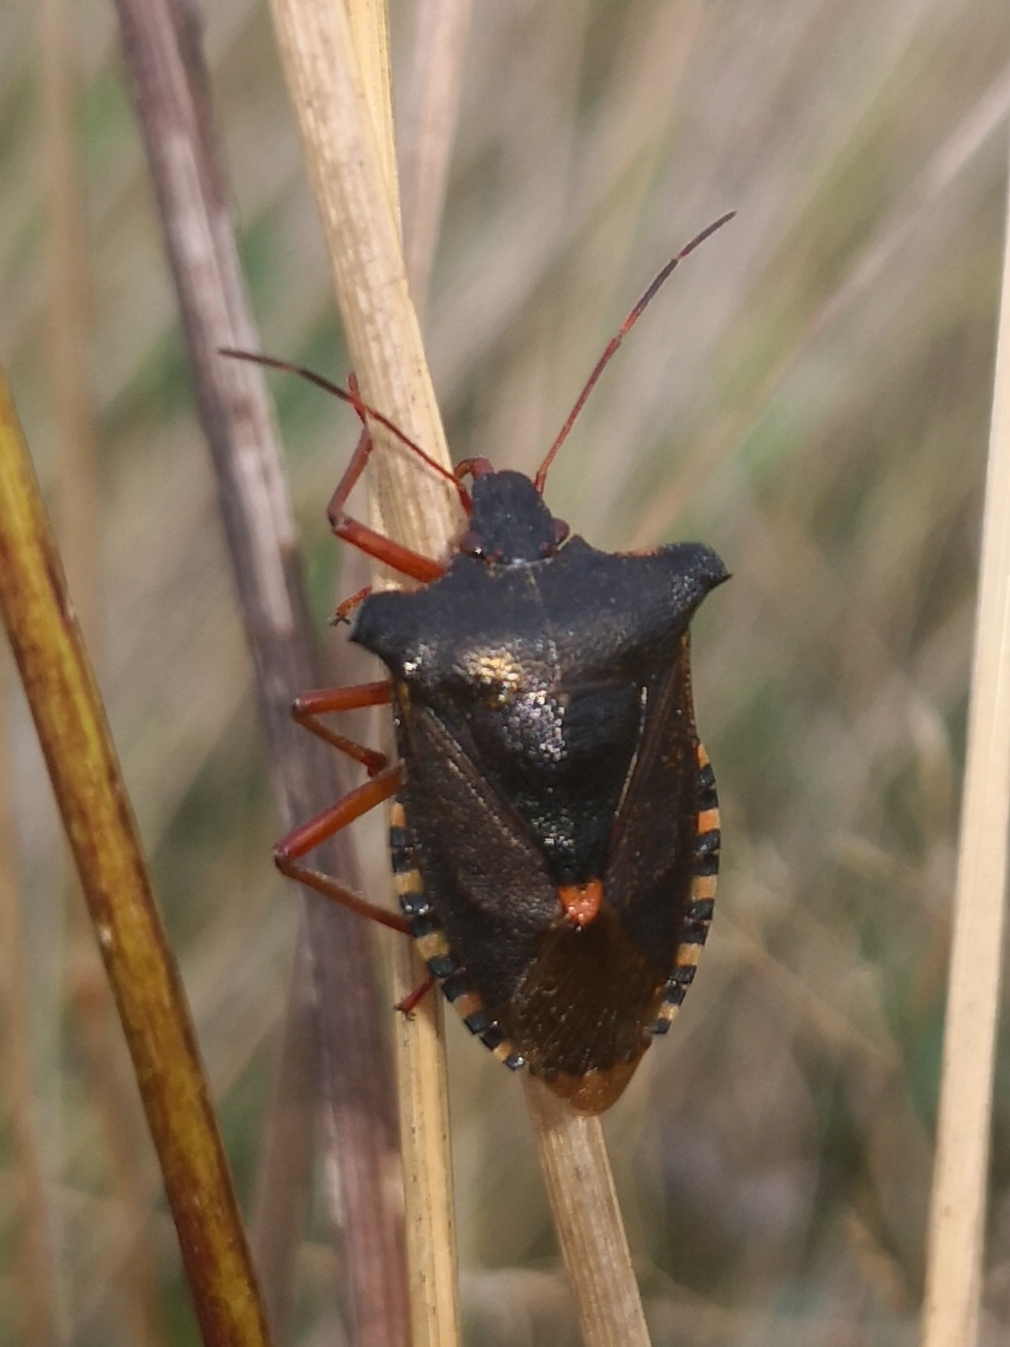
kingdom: Animalia
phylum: Arthropoda
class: Insecta
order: Hemiptera
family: Pentatomidae
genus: Pentatoma
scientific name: Pentatoma rufipes
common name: Forest bug
